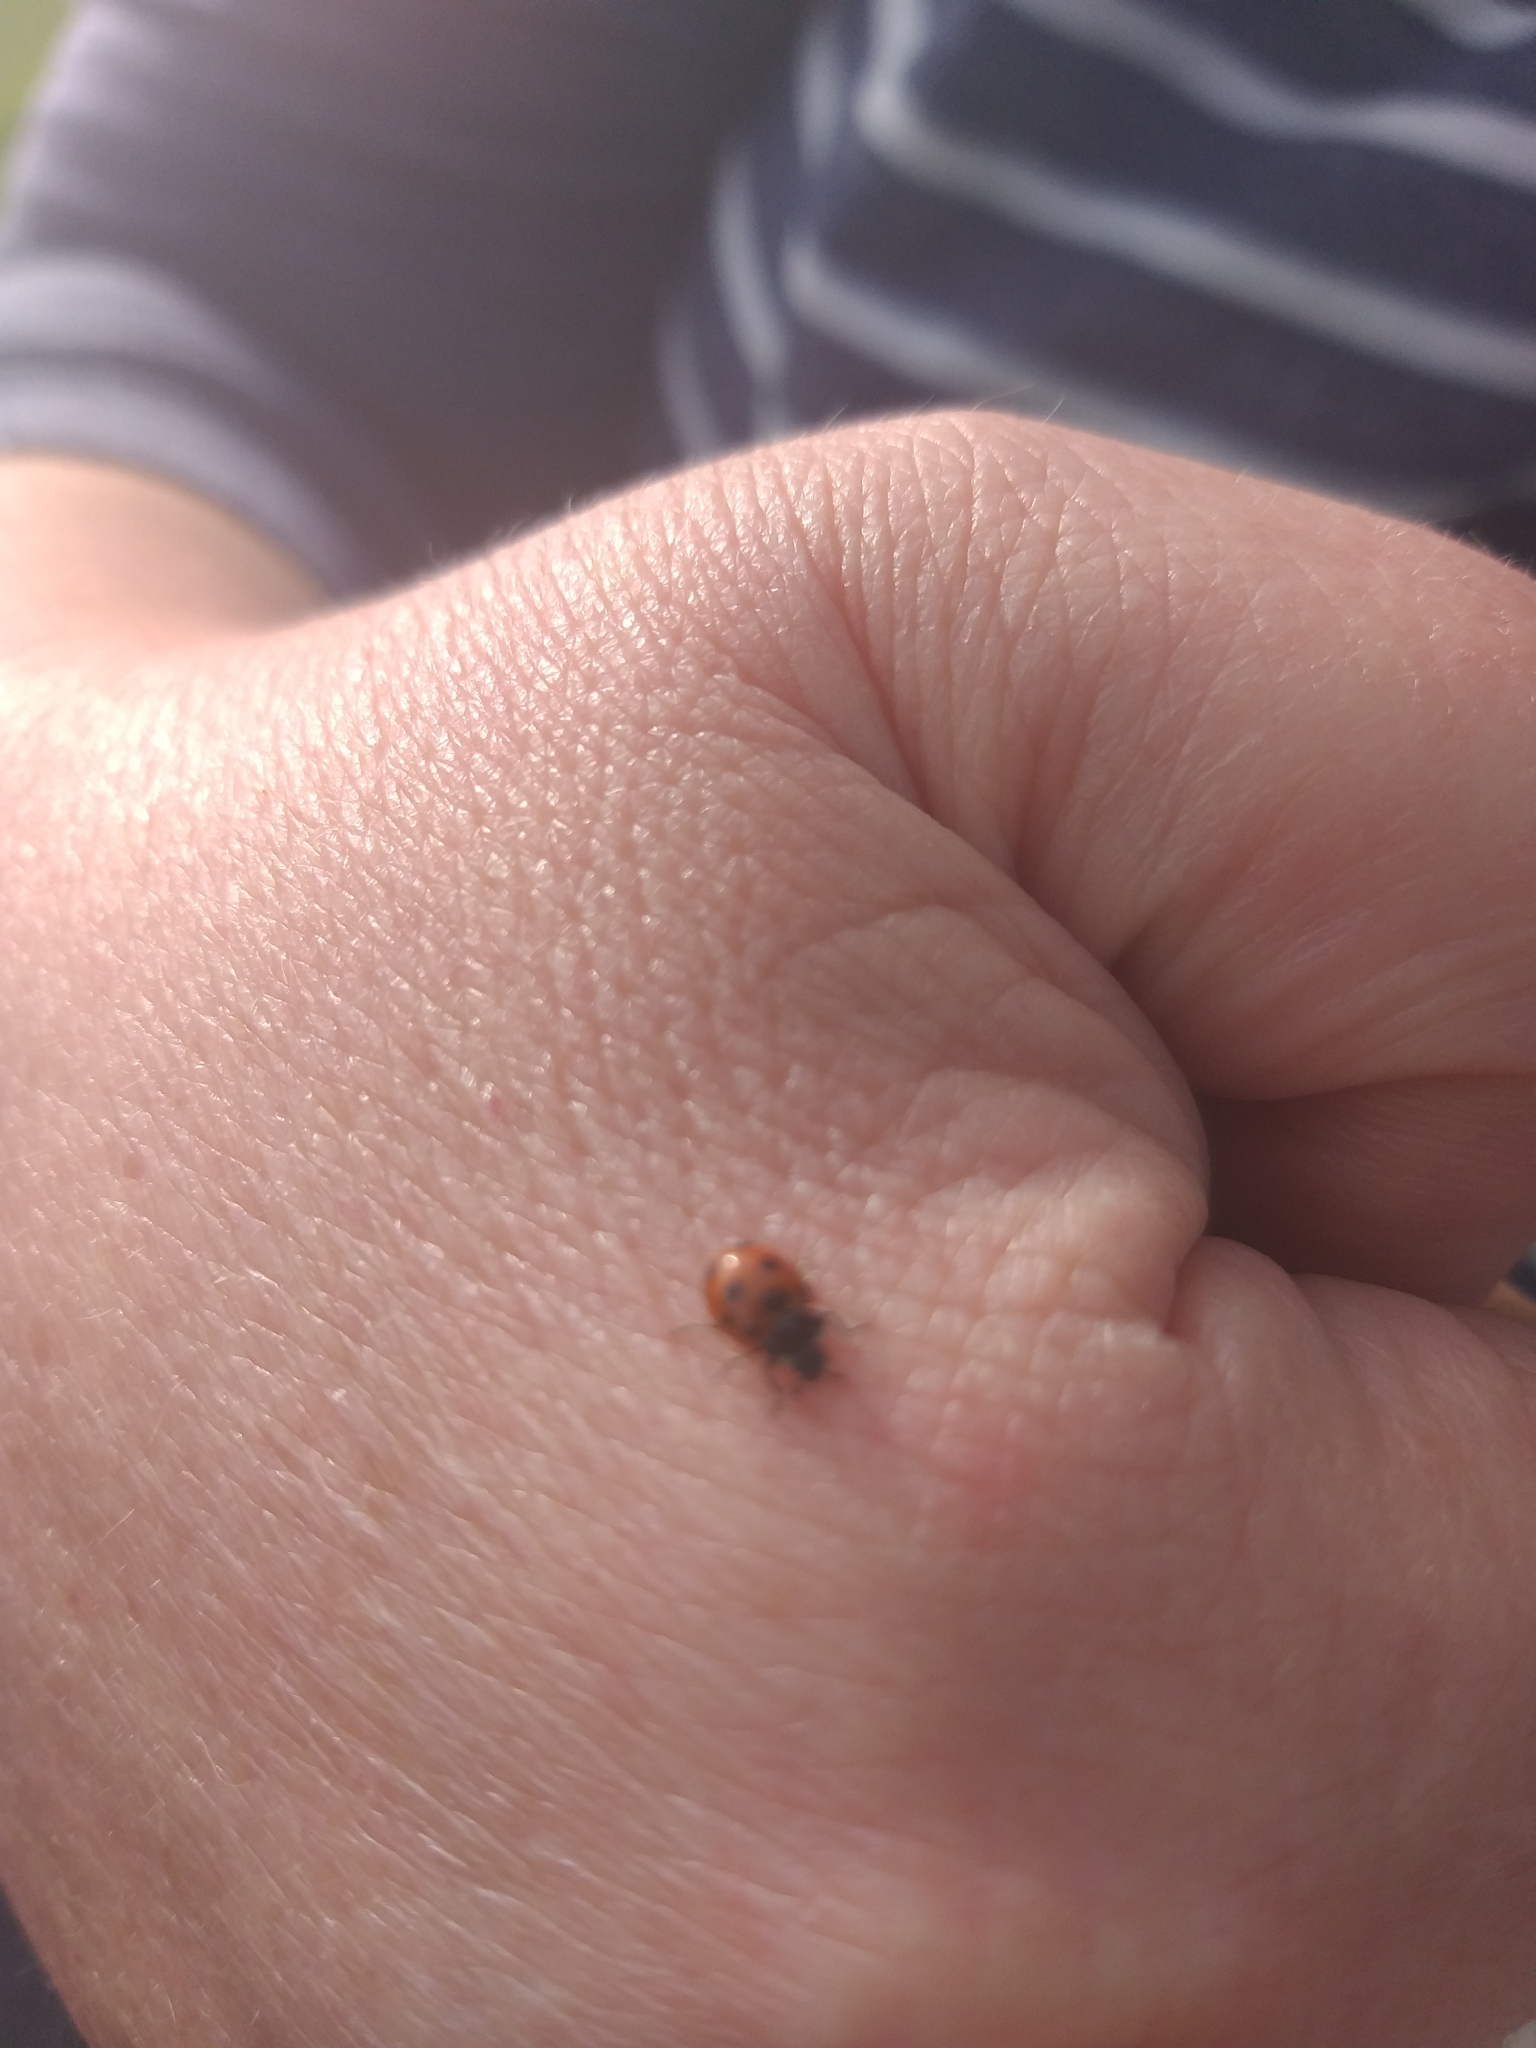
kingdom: Animalia
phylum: Arthropoda
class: Insecta
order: Coleoptera
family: Coccinellidae
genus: Coccinella
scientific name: Coccinella undecimpunctata
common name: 11-spot ladybird
